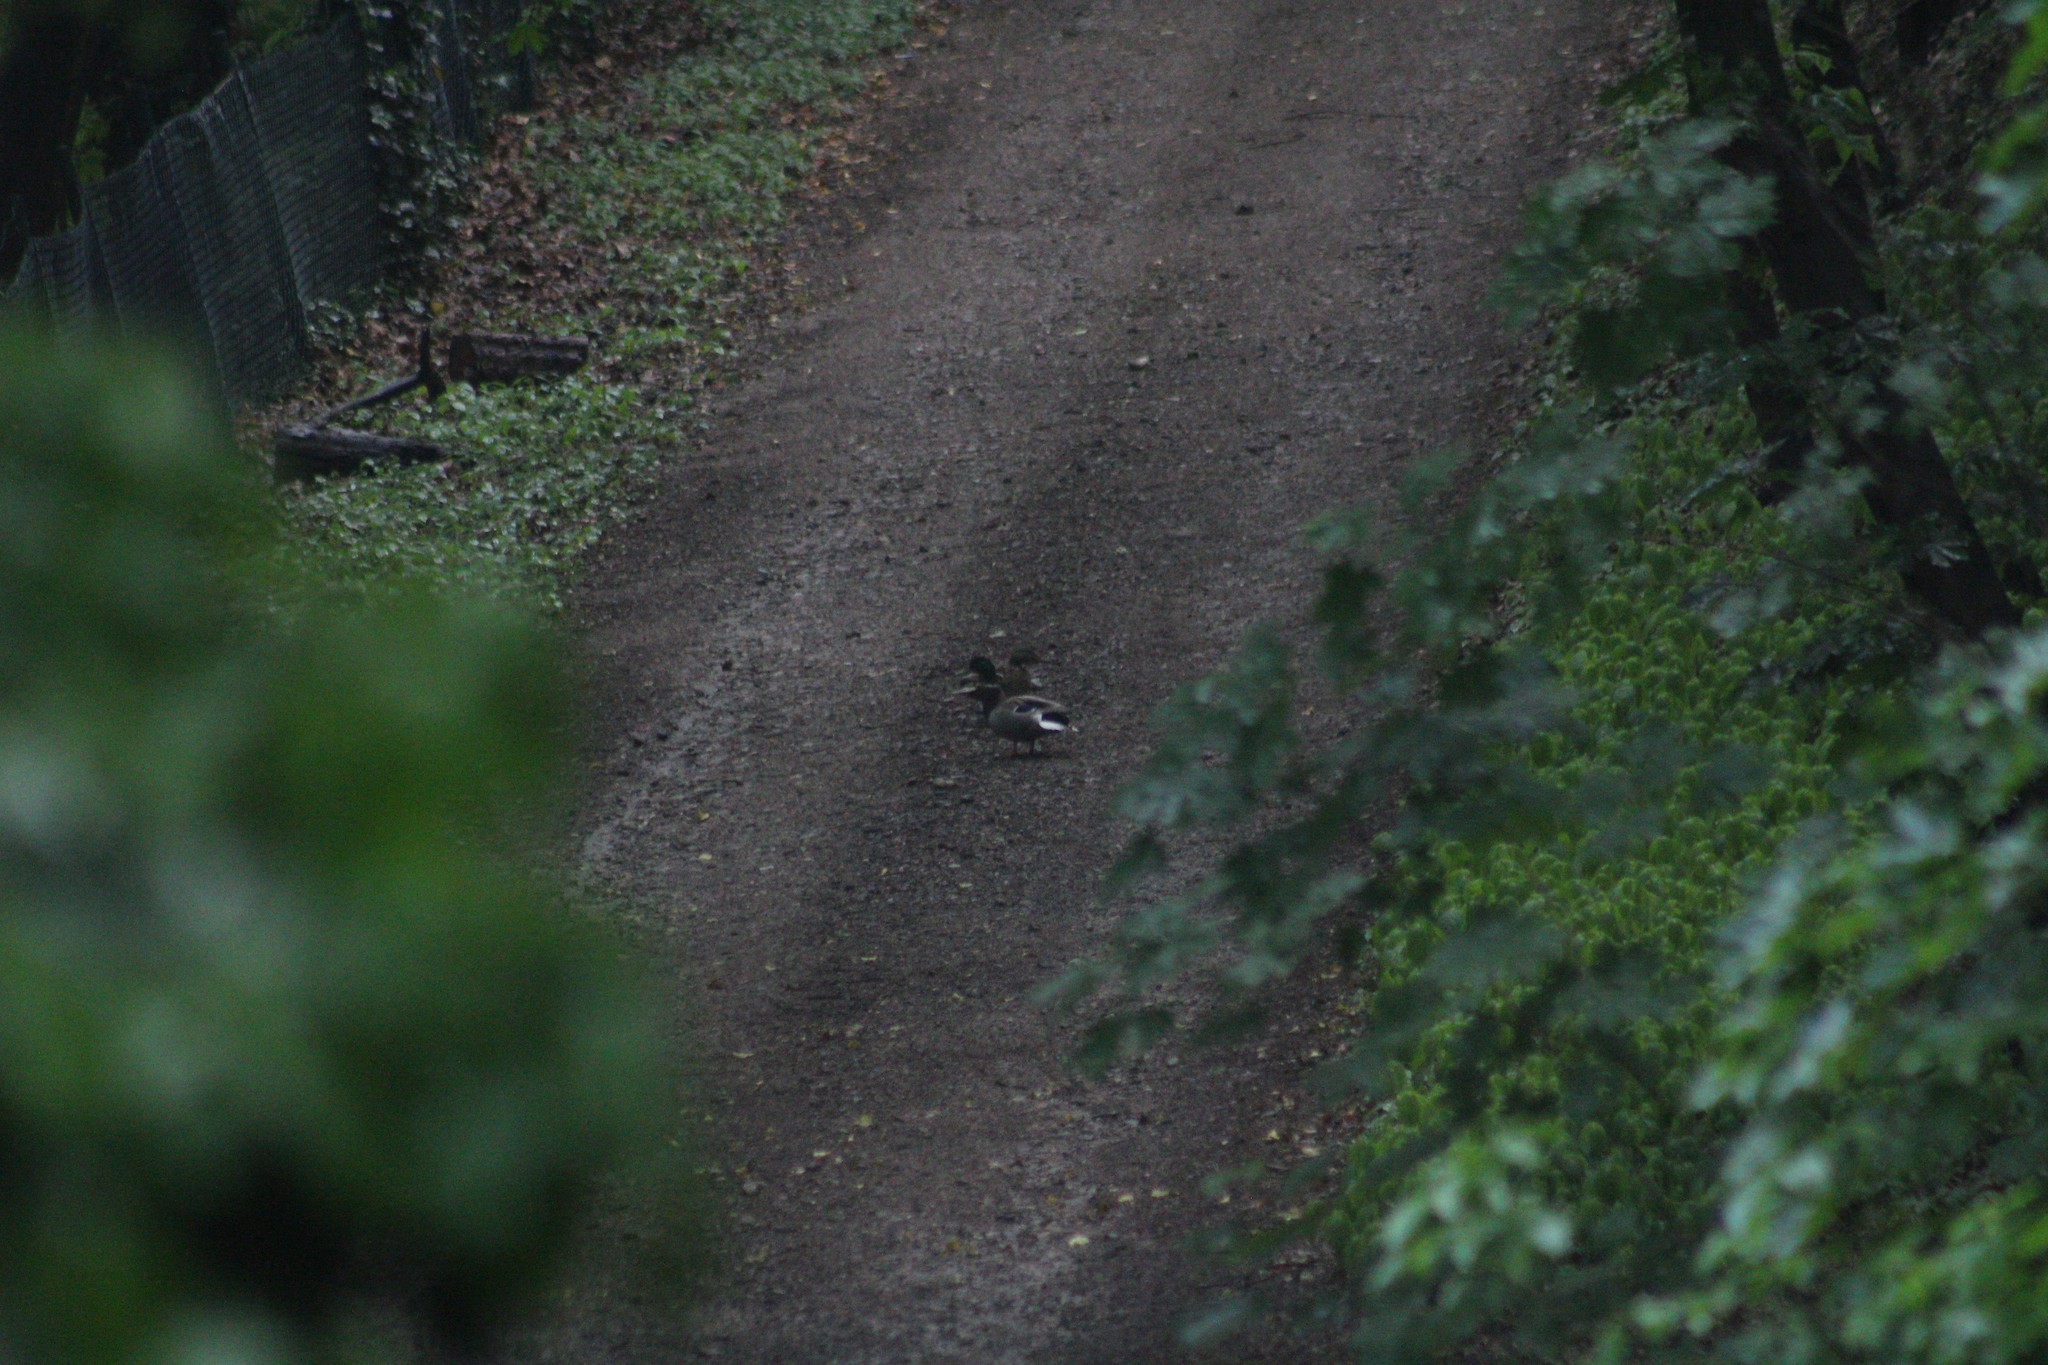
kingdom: Animalia
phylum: Chordata
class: Aves
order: Anseriformes
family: Anatidae
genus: Anas
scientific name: Anas platyrhynchos
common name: Mallard
